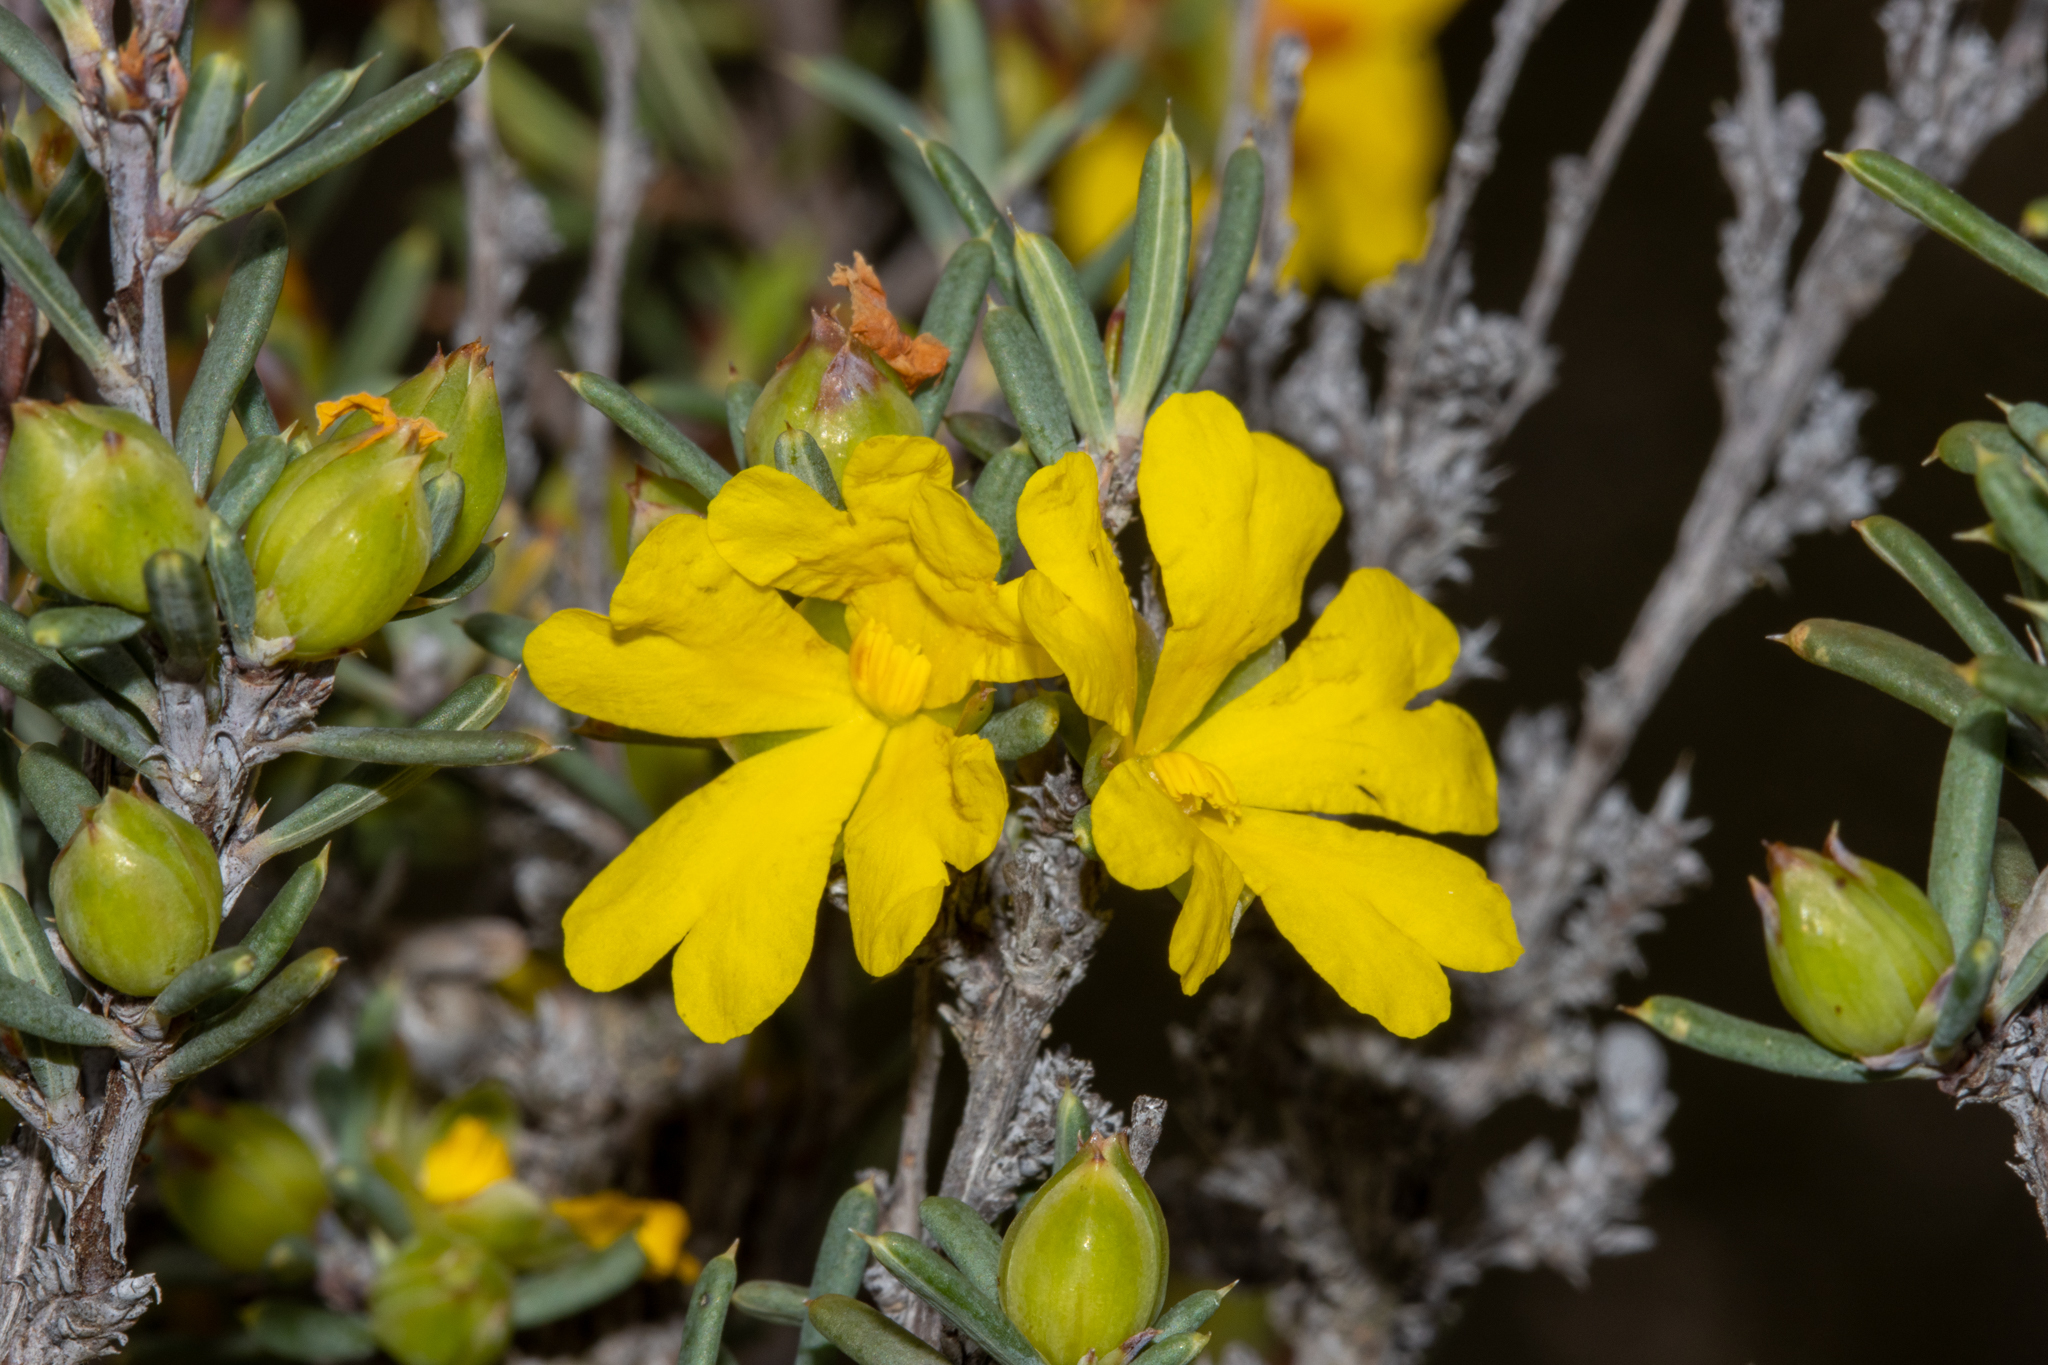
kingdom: Plantae
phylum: Tracheophyta
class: Magnoliopsida
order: Dilleniales
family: Dilleniaceae
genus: Hibbertia
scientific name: Hibbertia stowardii
